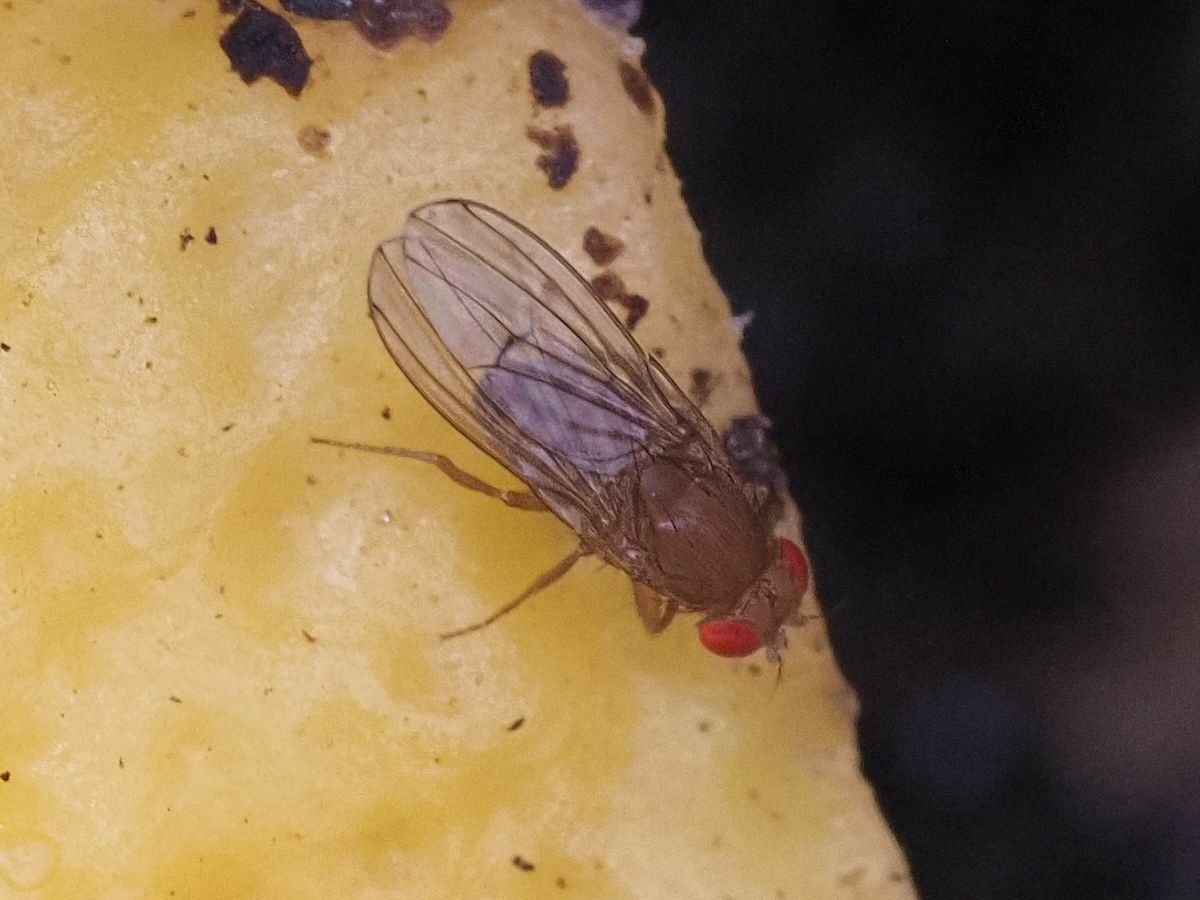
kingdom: Animalia
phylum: Arthropoda
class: Insecta
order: Diptera
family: Drosophilidae
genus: Drosophila
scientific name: Drosophila immigrans
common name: Pomace fly
